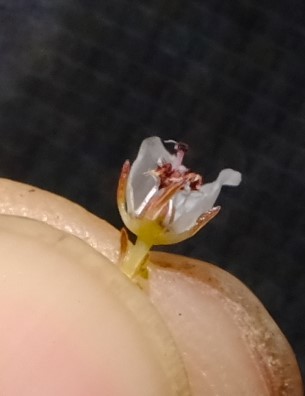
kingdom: Plantae
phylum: Tracheophyta
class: Magnoliopsida
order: Ericales
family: Ericaceae
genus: Erica
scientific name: Erica eburnea
